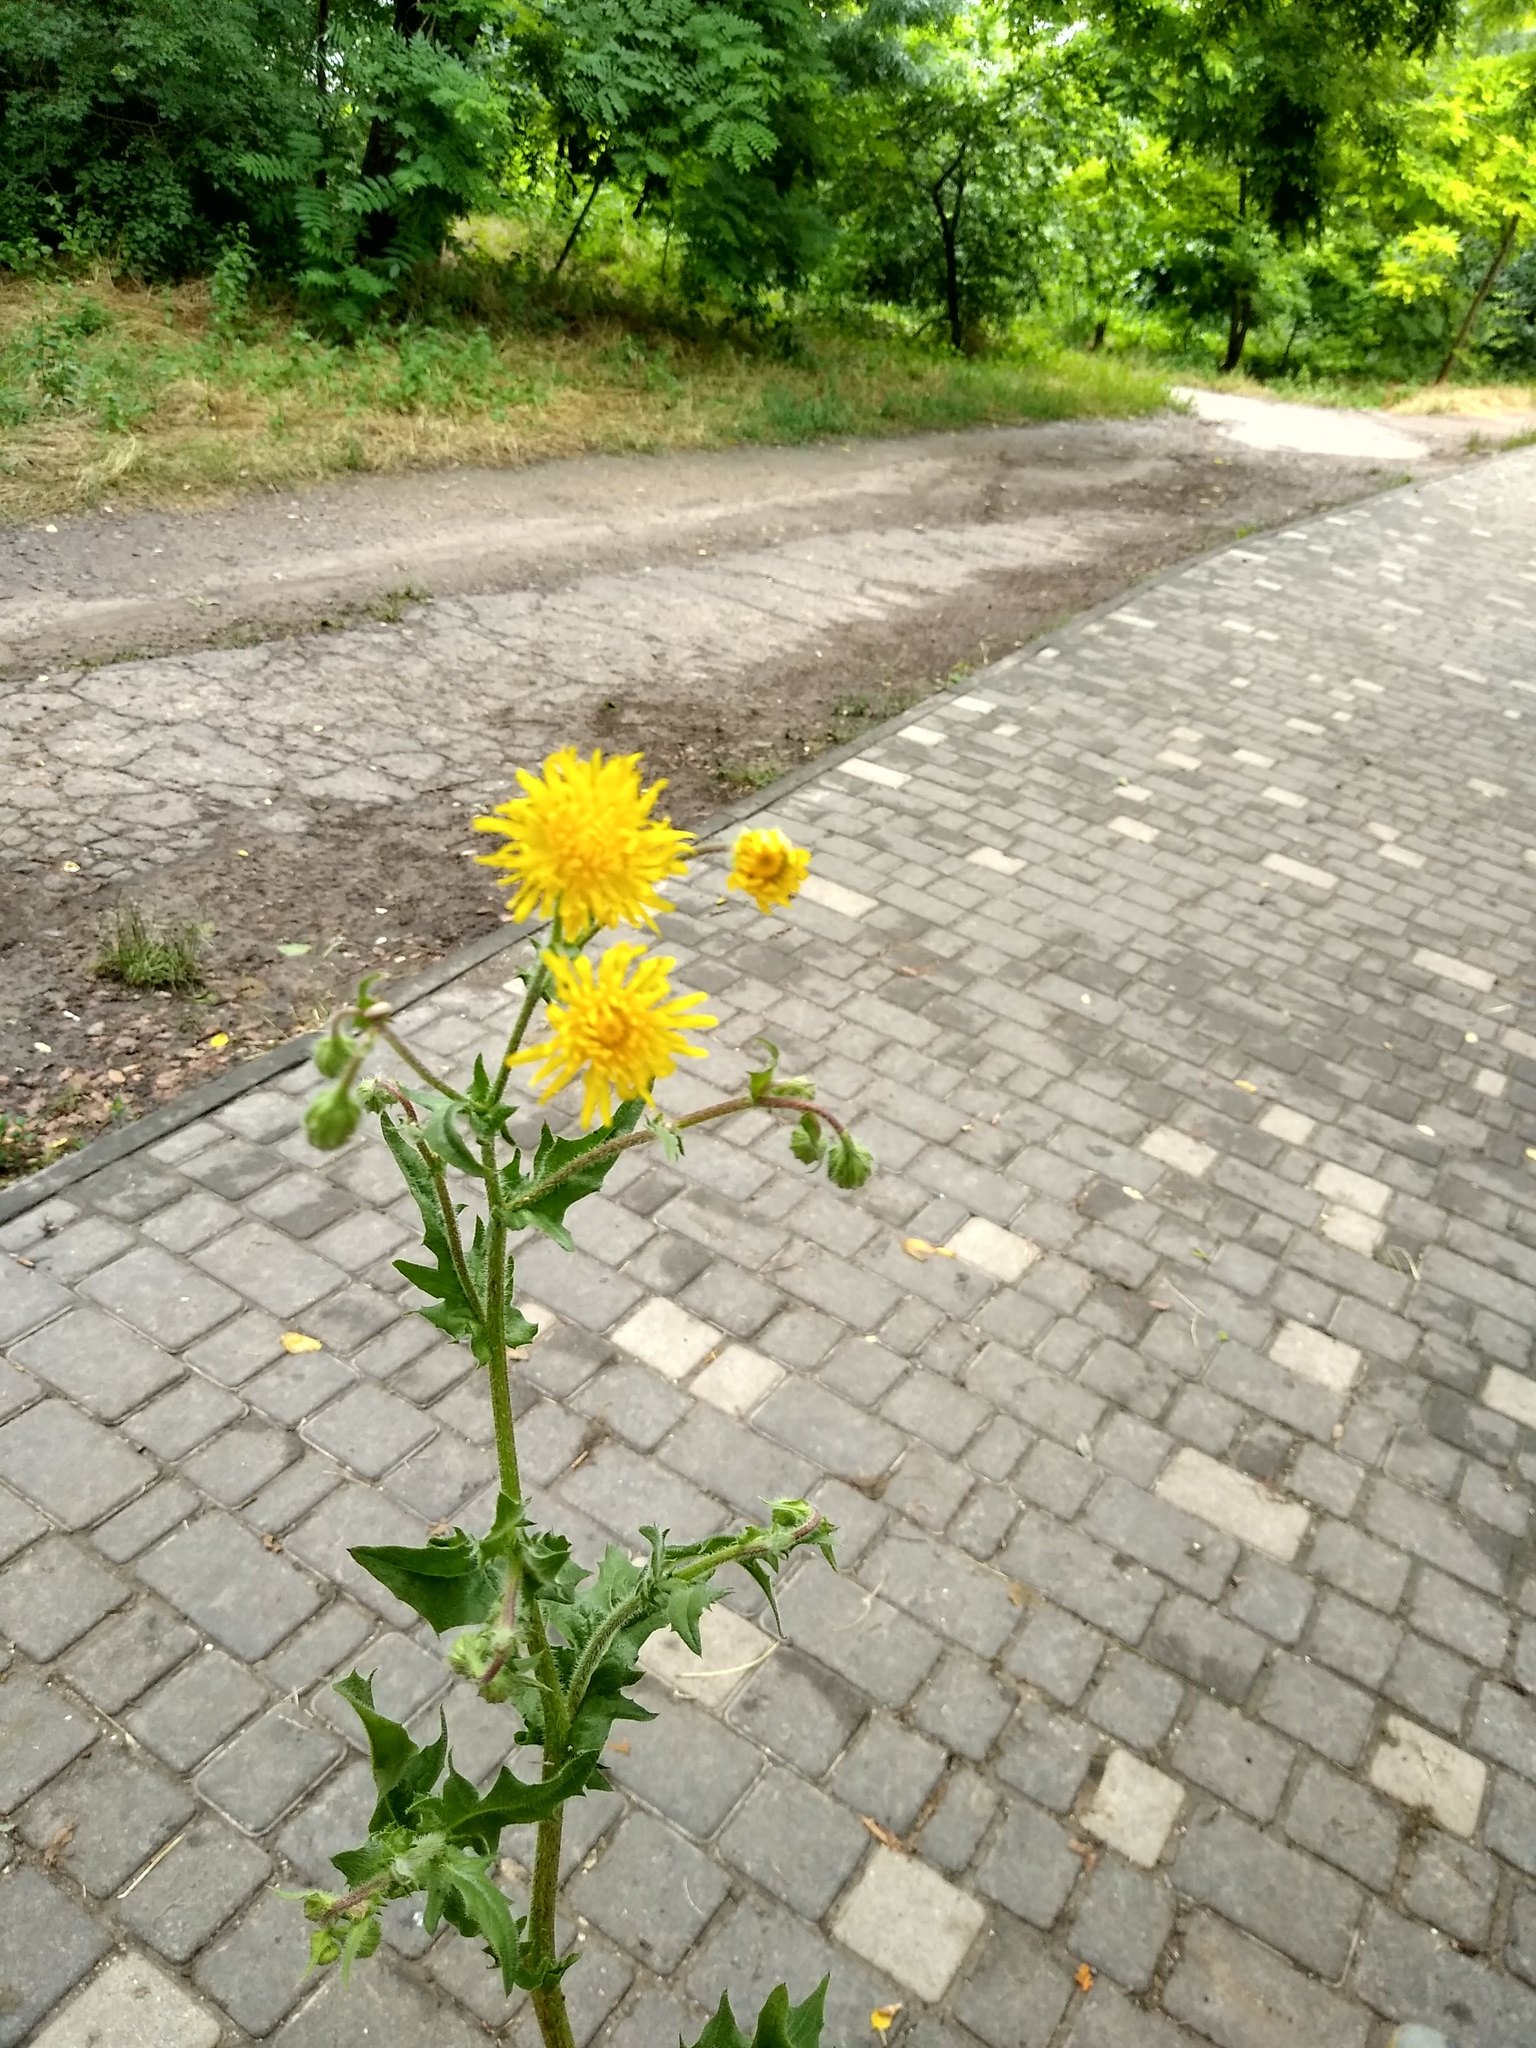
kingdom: Plantae
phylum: Tracheophyta
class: Magnoliopsida
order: Asterales
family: Asteraceae
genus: Crepis
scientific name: Crepis foetida
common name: Stinking hawk's-beard
